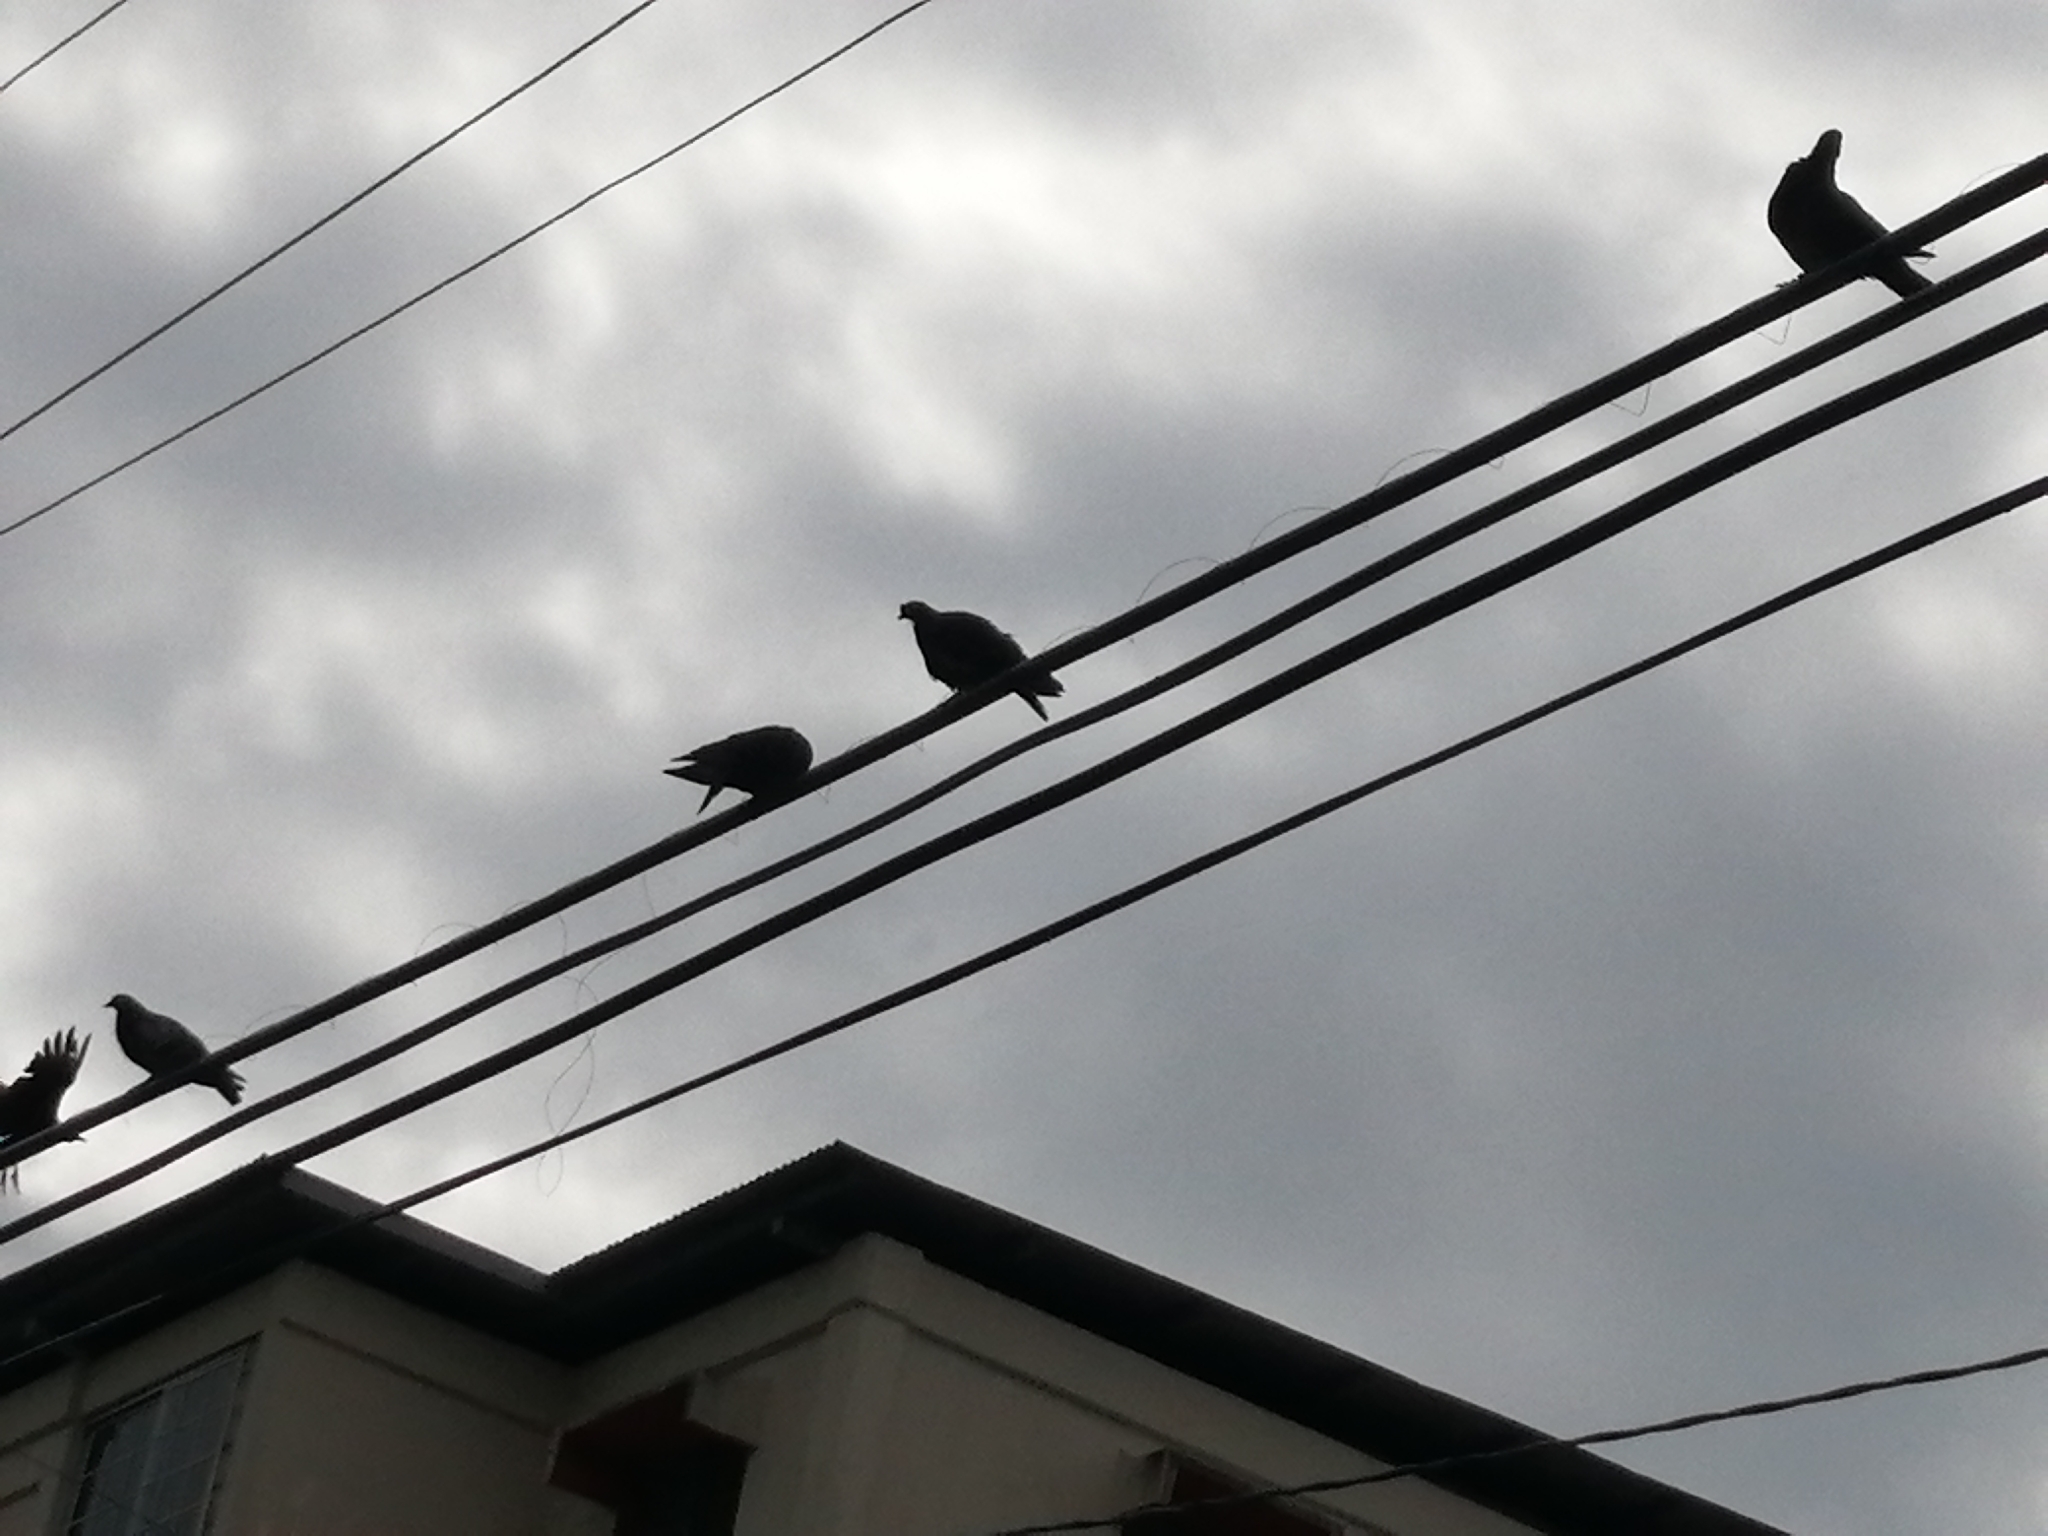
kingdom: Animalia
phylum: Chordata
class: Aves
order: Columbiformes
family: Columbidae
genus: Columba
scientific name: Columba livia
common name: Rock pigeon
